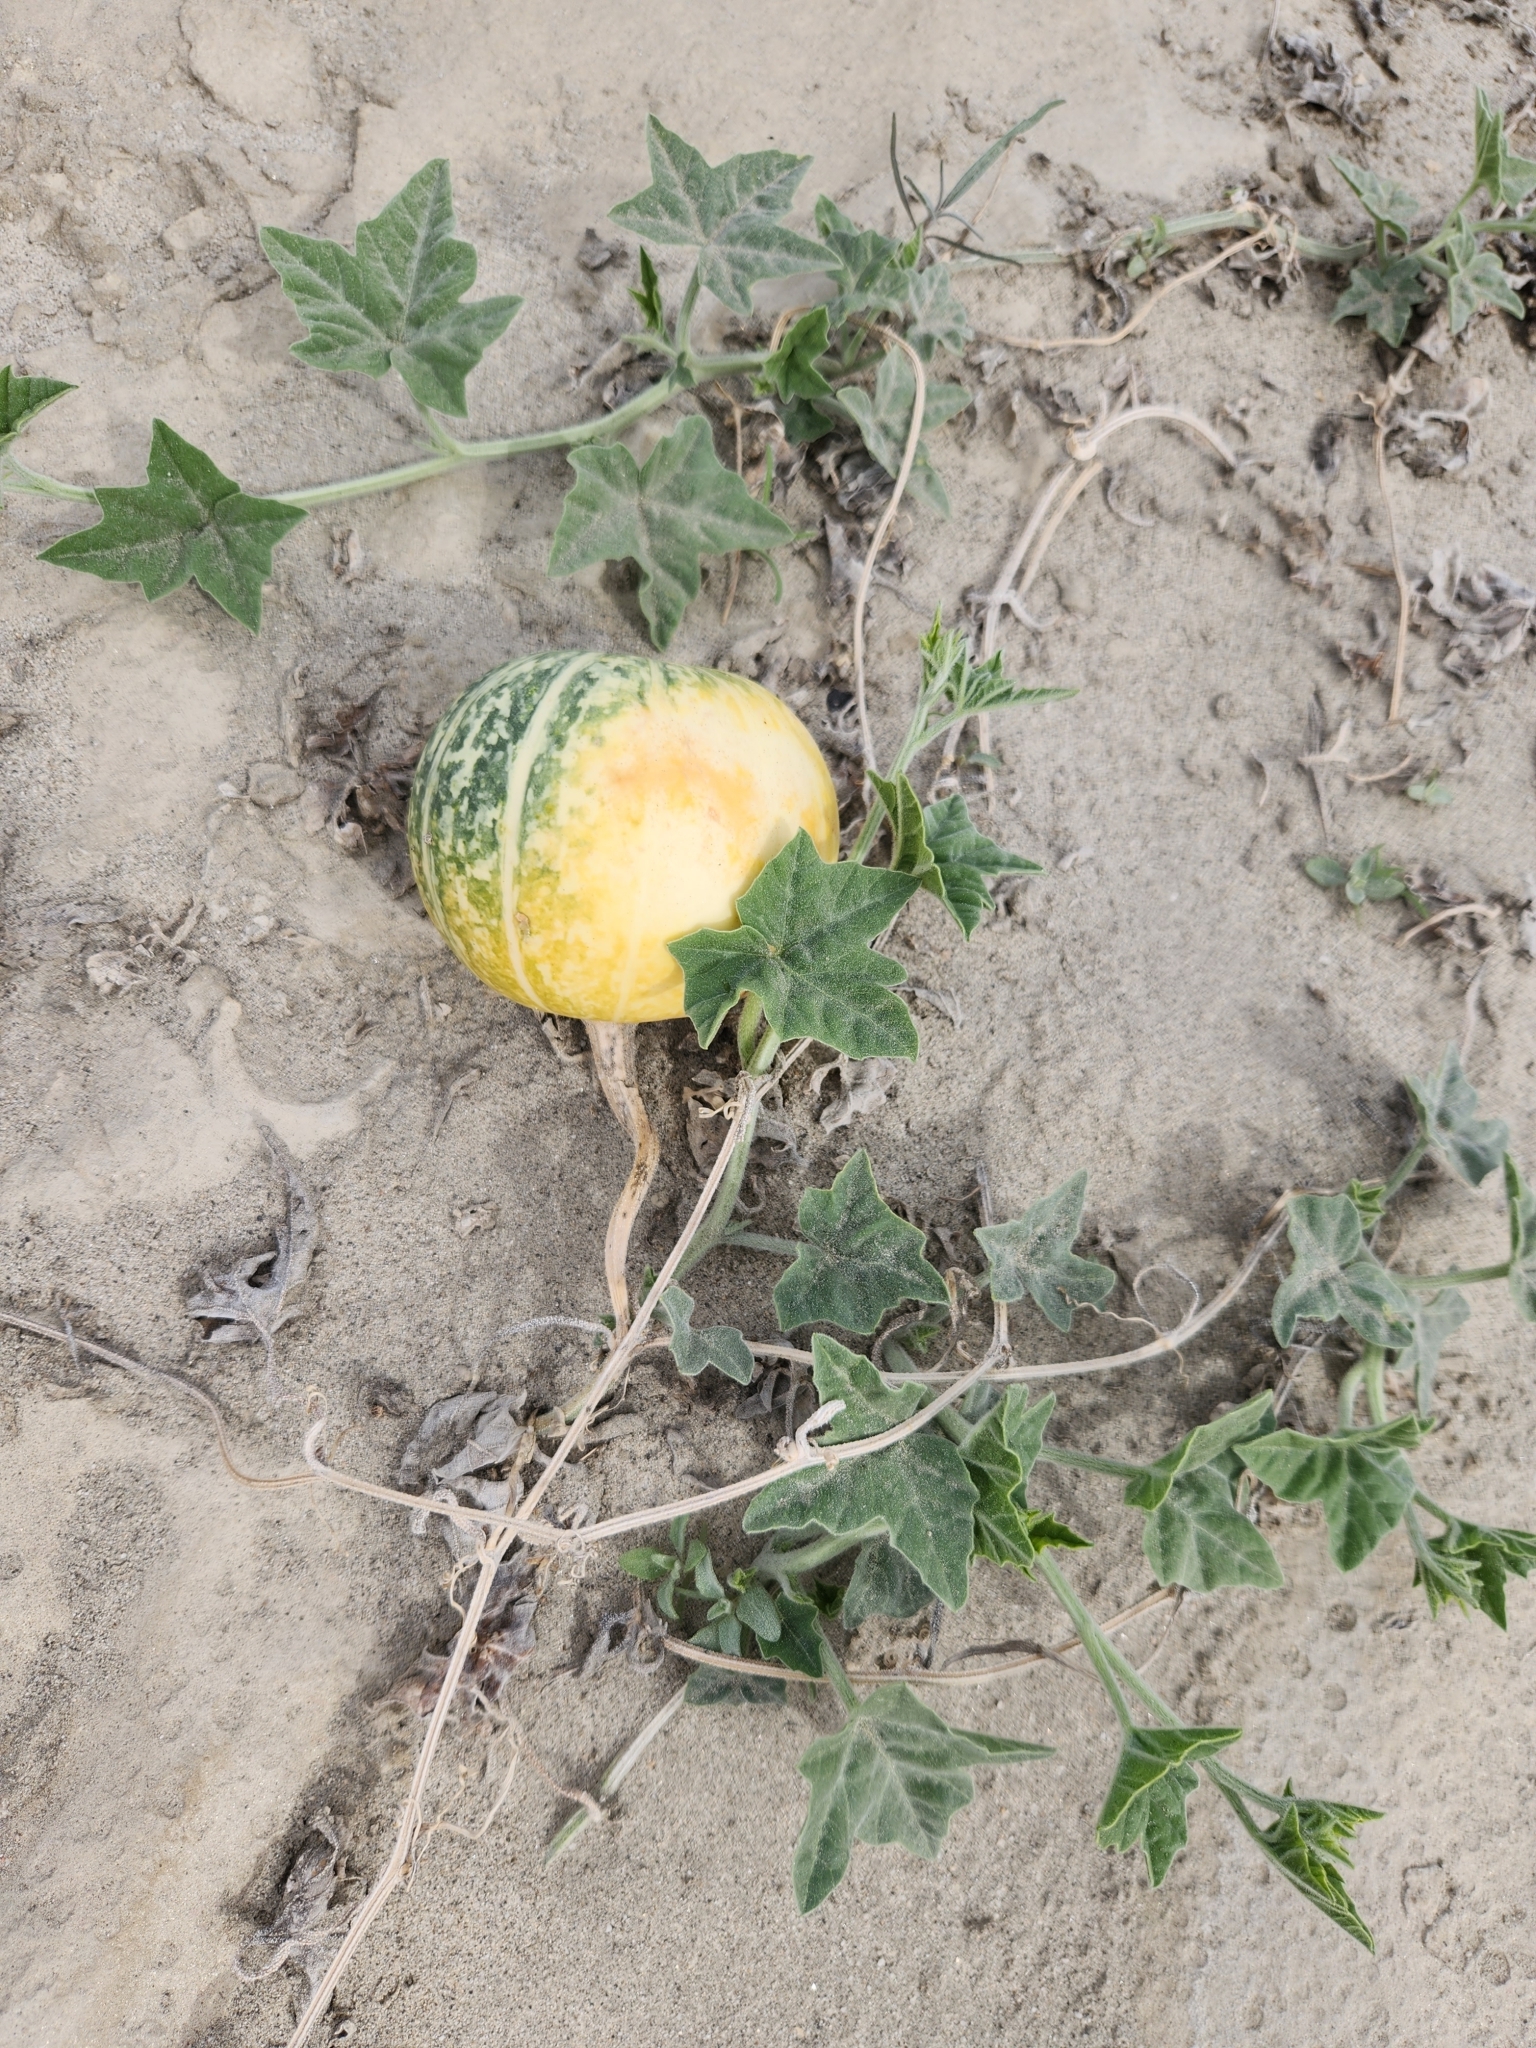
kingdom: Plantae
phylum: Tracheophyta
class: Magnoliopsida
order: Cucurbitales
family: Cucurbitaceae
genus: Cucurbita
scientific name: Cucurbita palmata
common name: Coyote-melon
